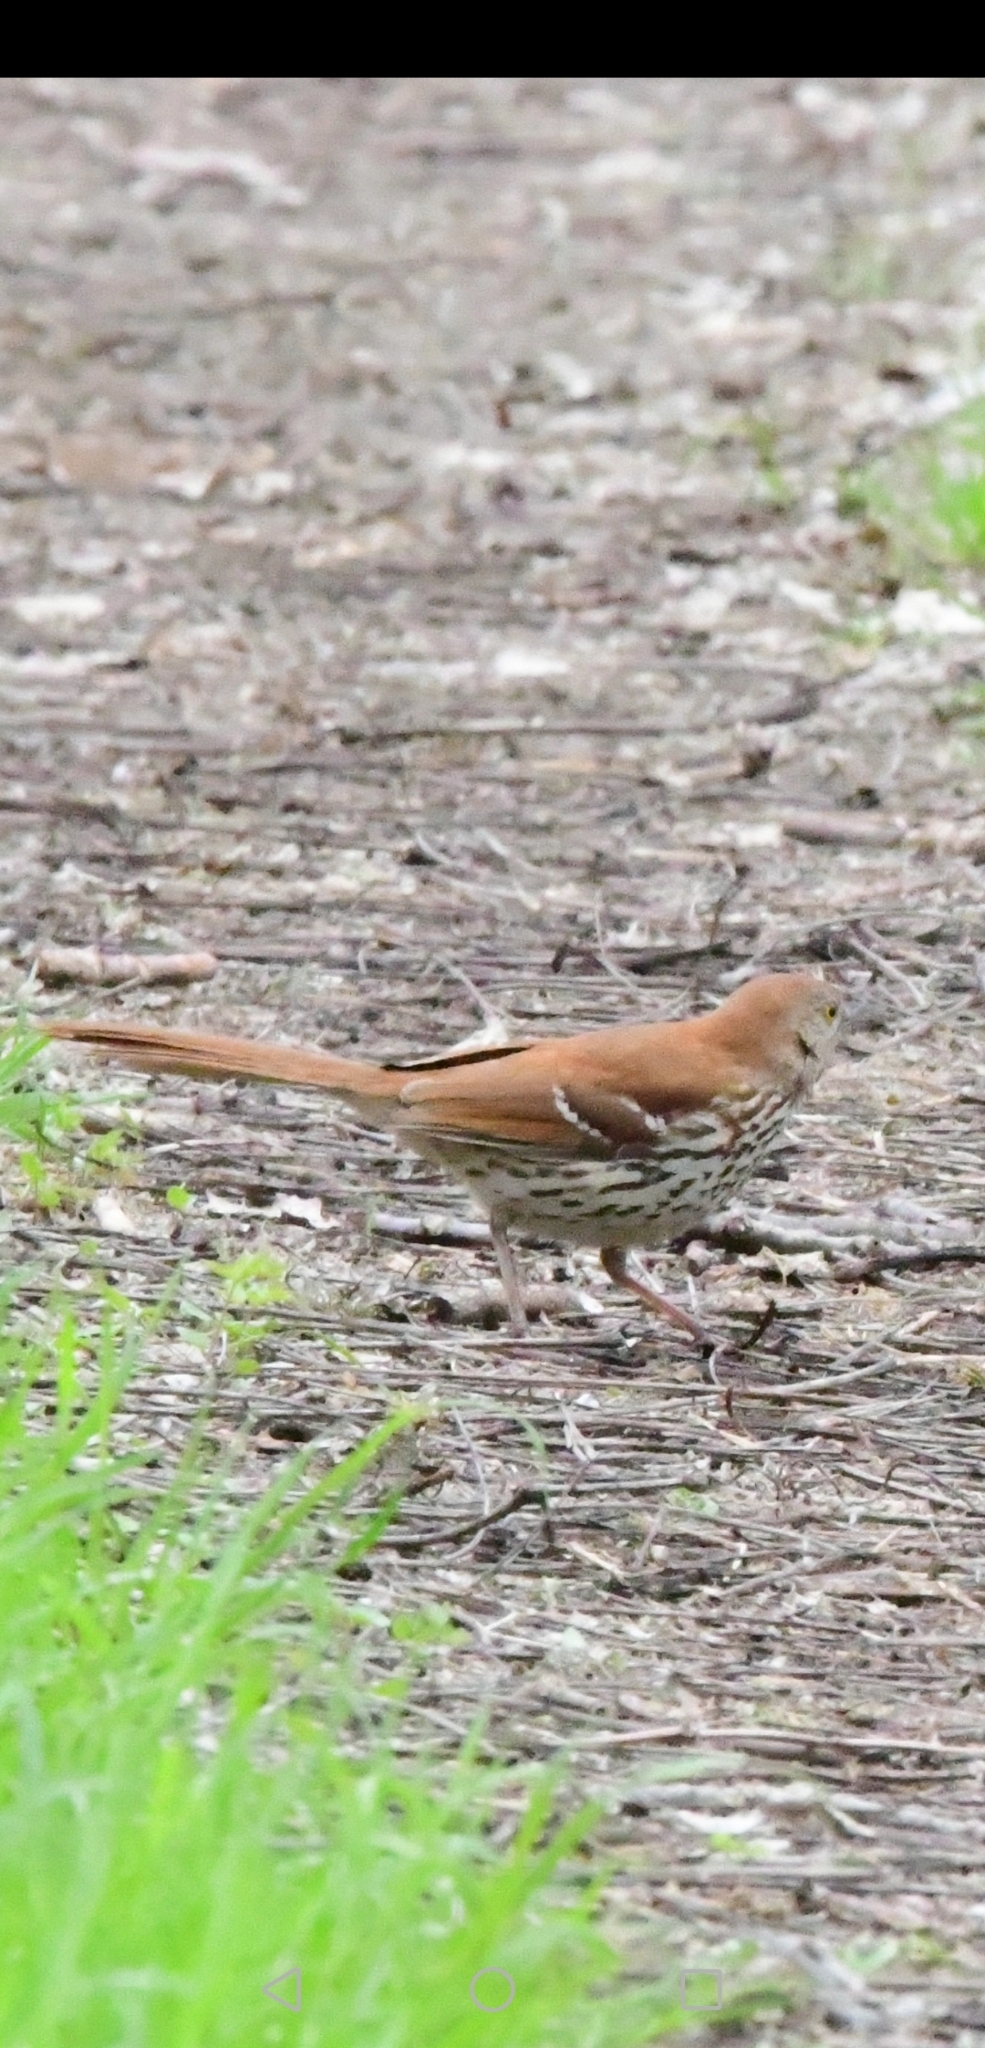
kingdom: Animalia
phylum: Chordata
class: Aves
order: Passeriformes
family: Mimidae
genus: Toxostoma
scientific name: Toxostoma rufum
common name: Brown thrasher
